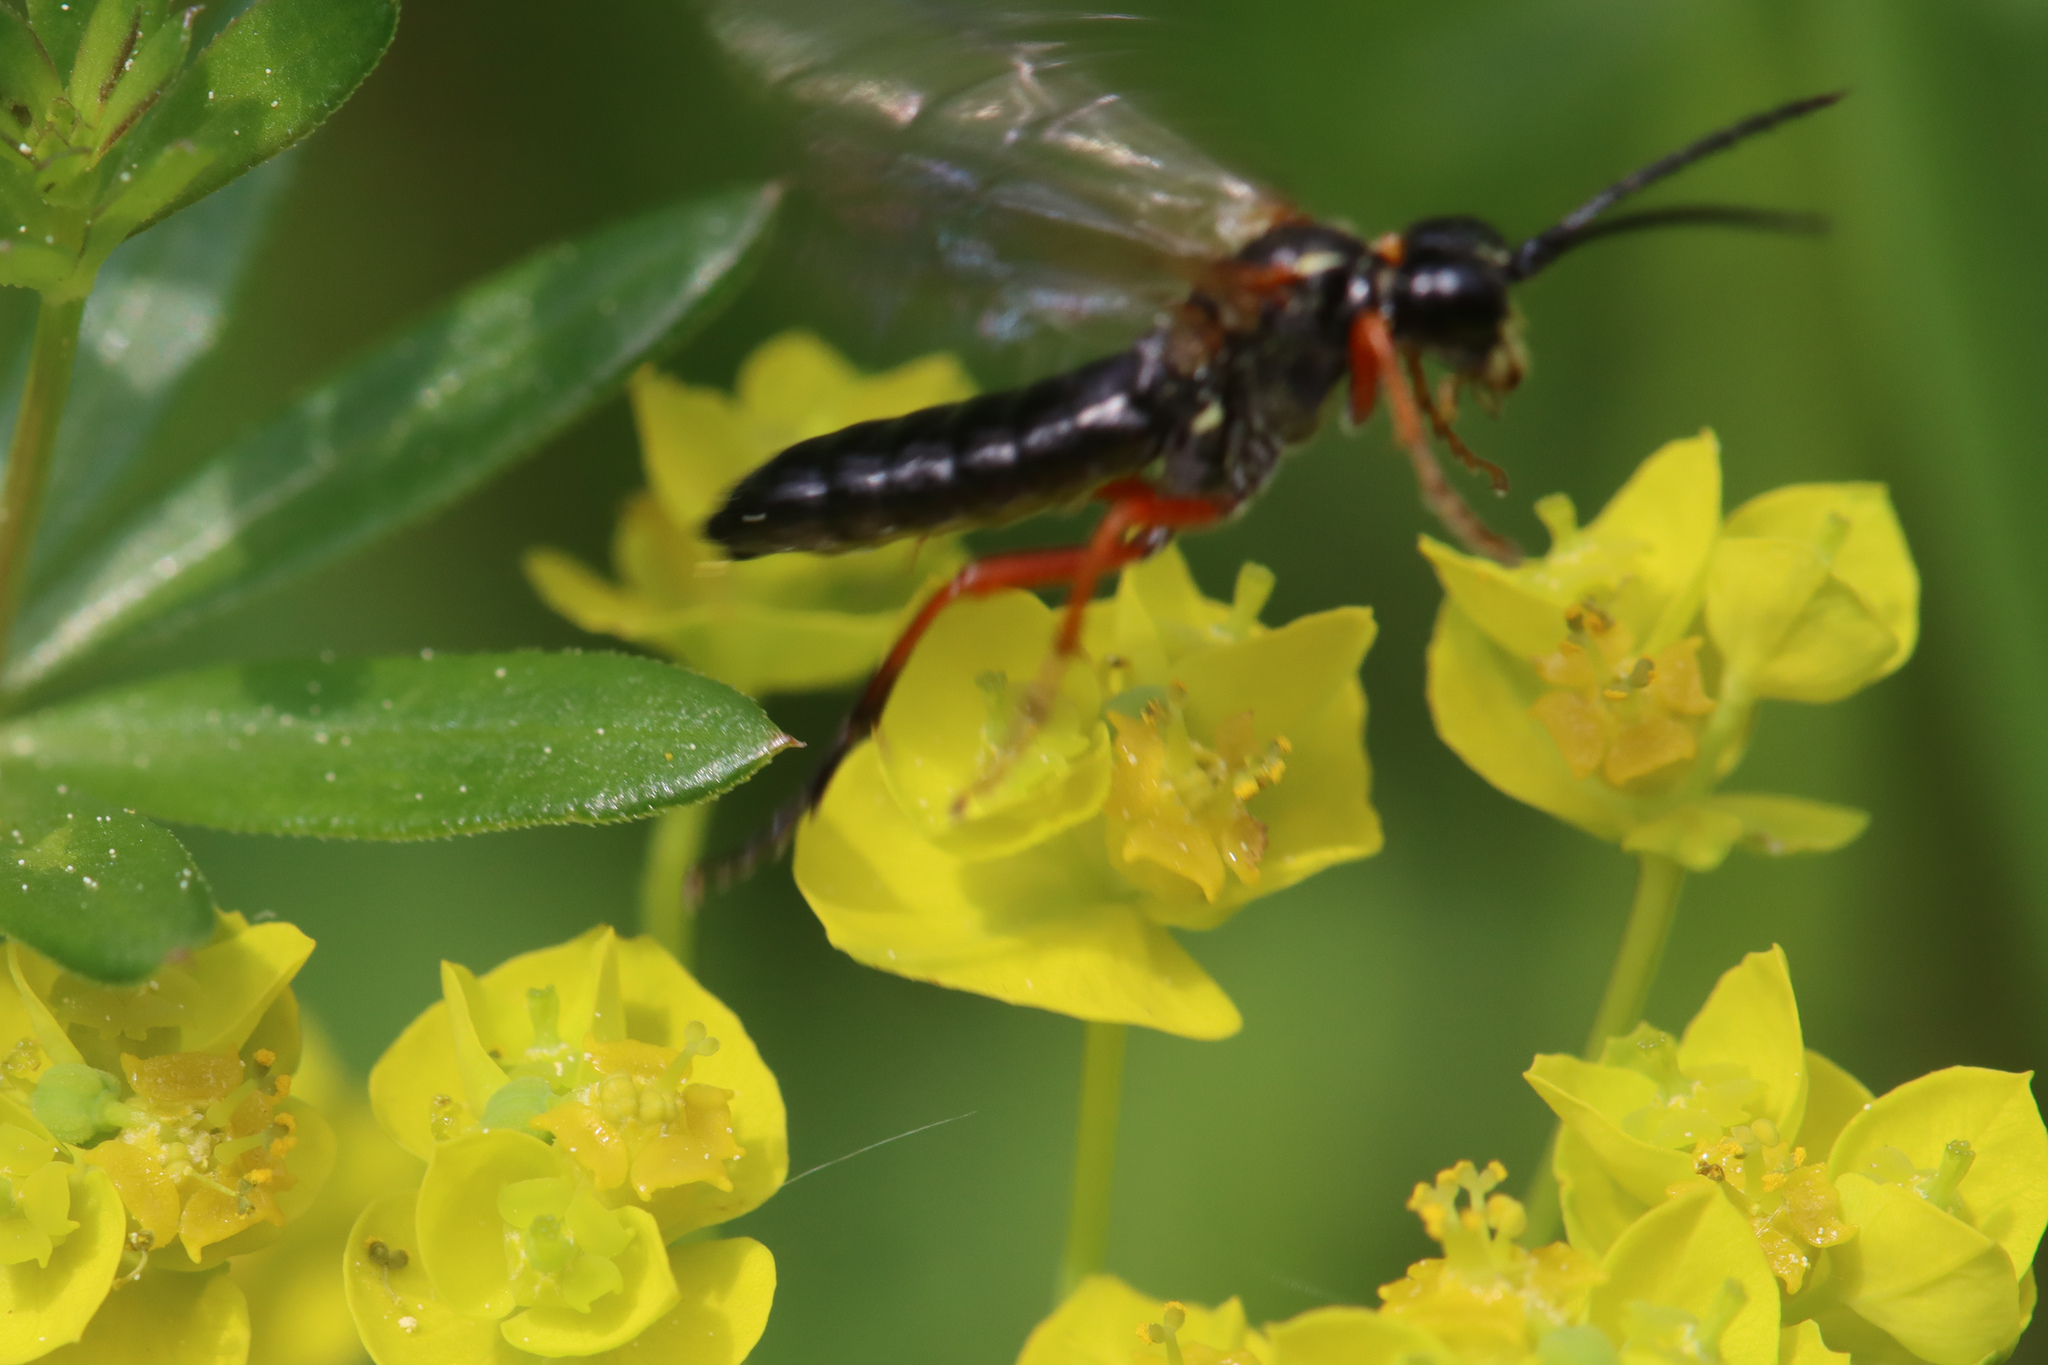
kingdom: Animalia
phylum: Arthropoda
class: Insecta
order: Hymenoptera
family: Tenthredinidae
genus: Tenthredo
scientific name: Tenthredo atra
